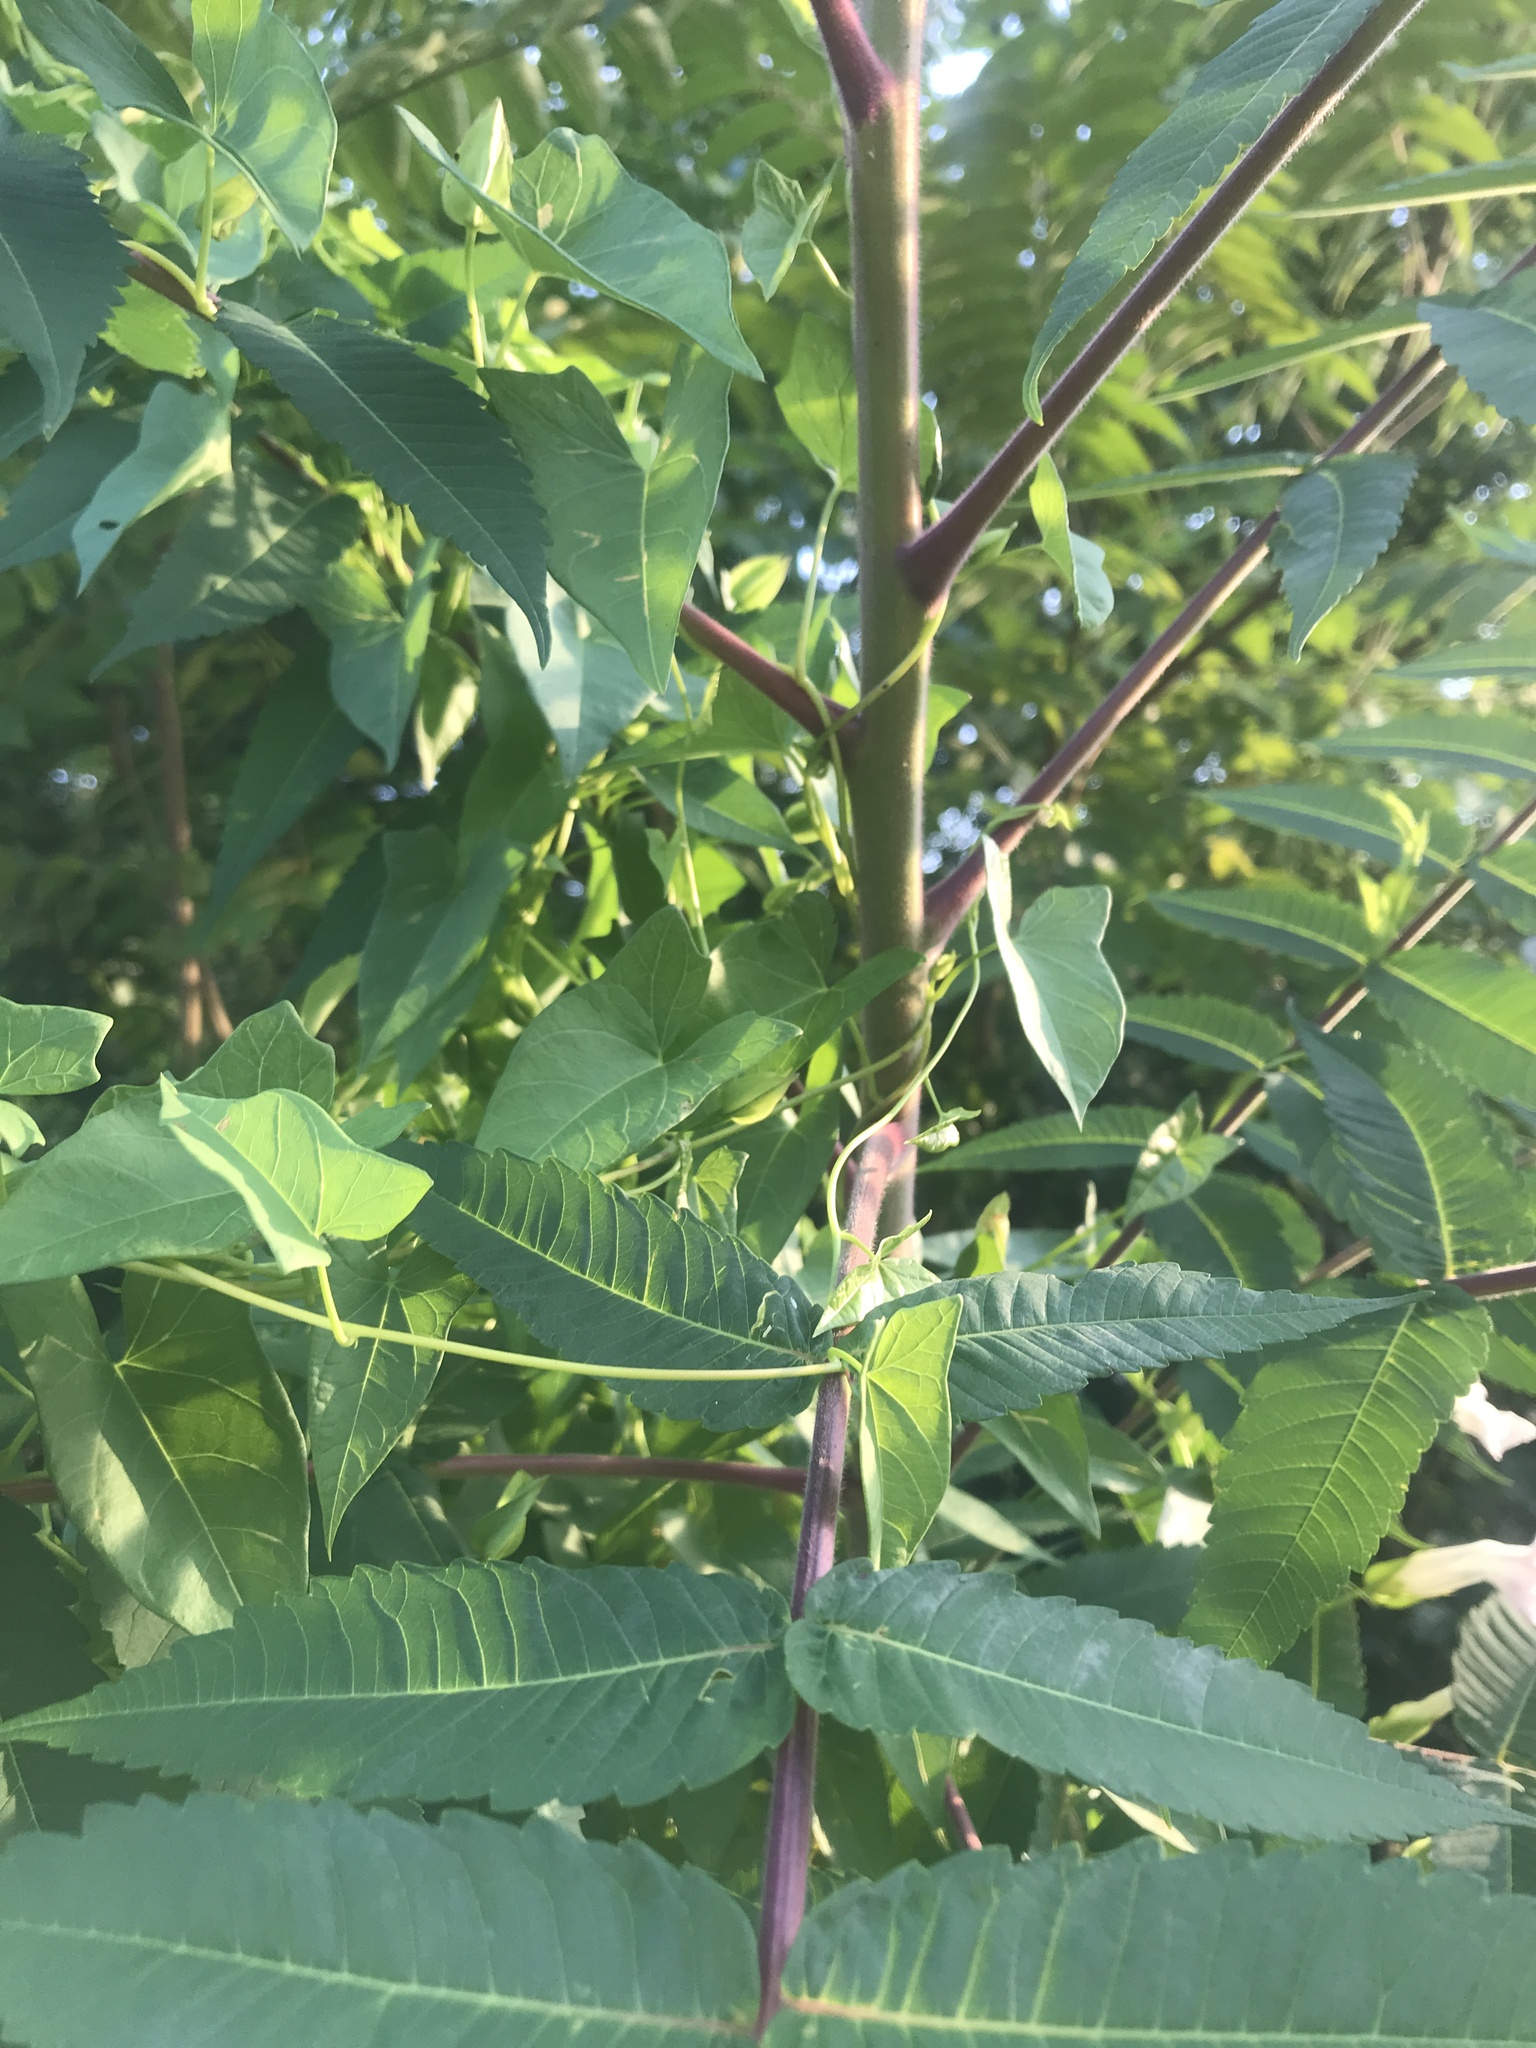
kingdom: Plantae
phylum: Tracheophyta
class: Magnoliopsida
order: Sapindales
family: Anacardiaceae
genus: Rhus
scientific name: Rhus typhina
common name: Staghorn sumac
